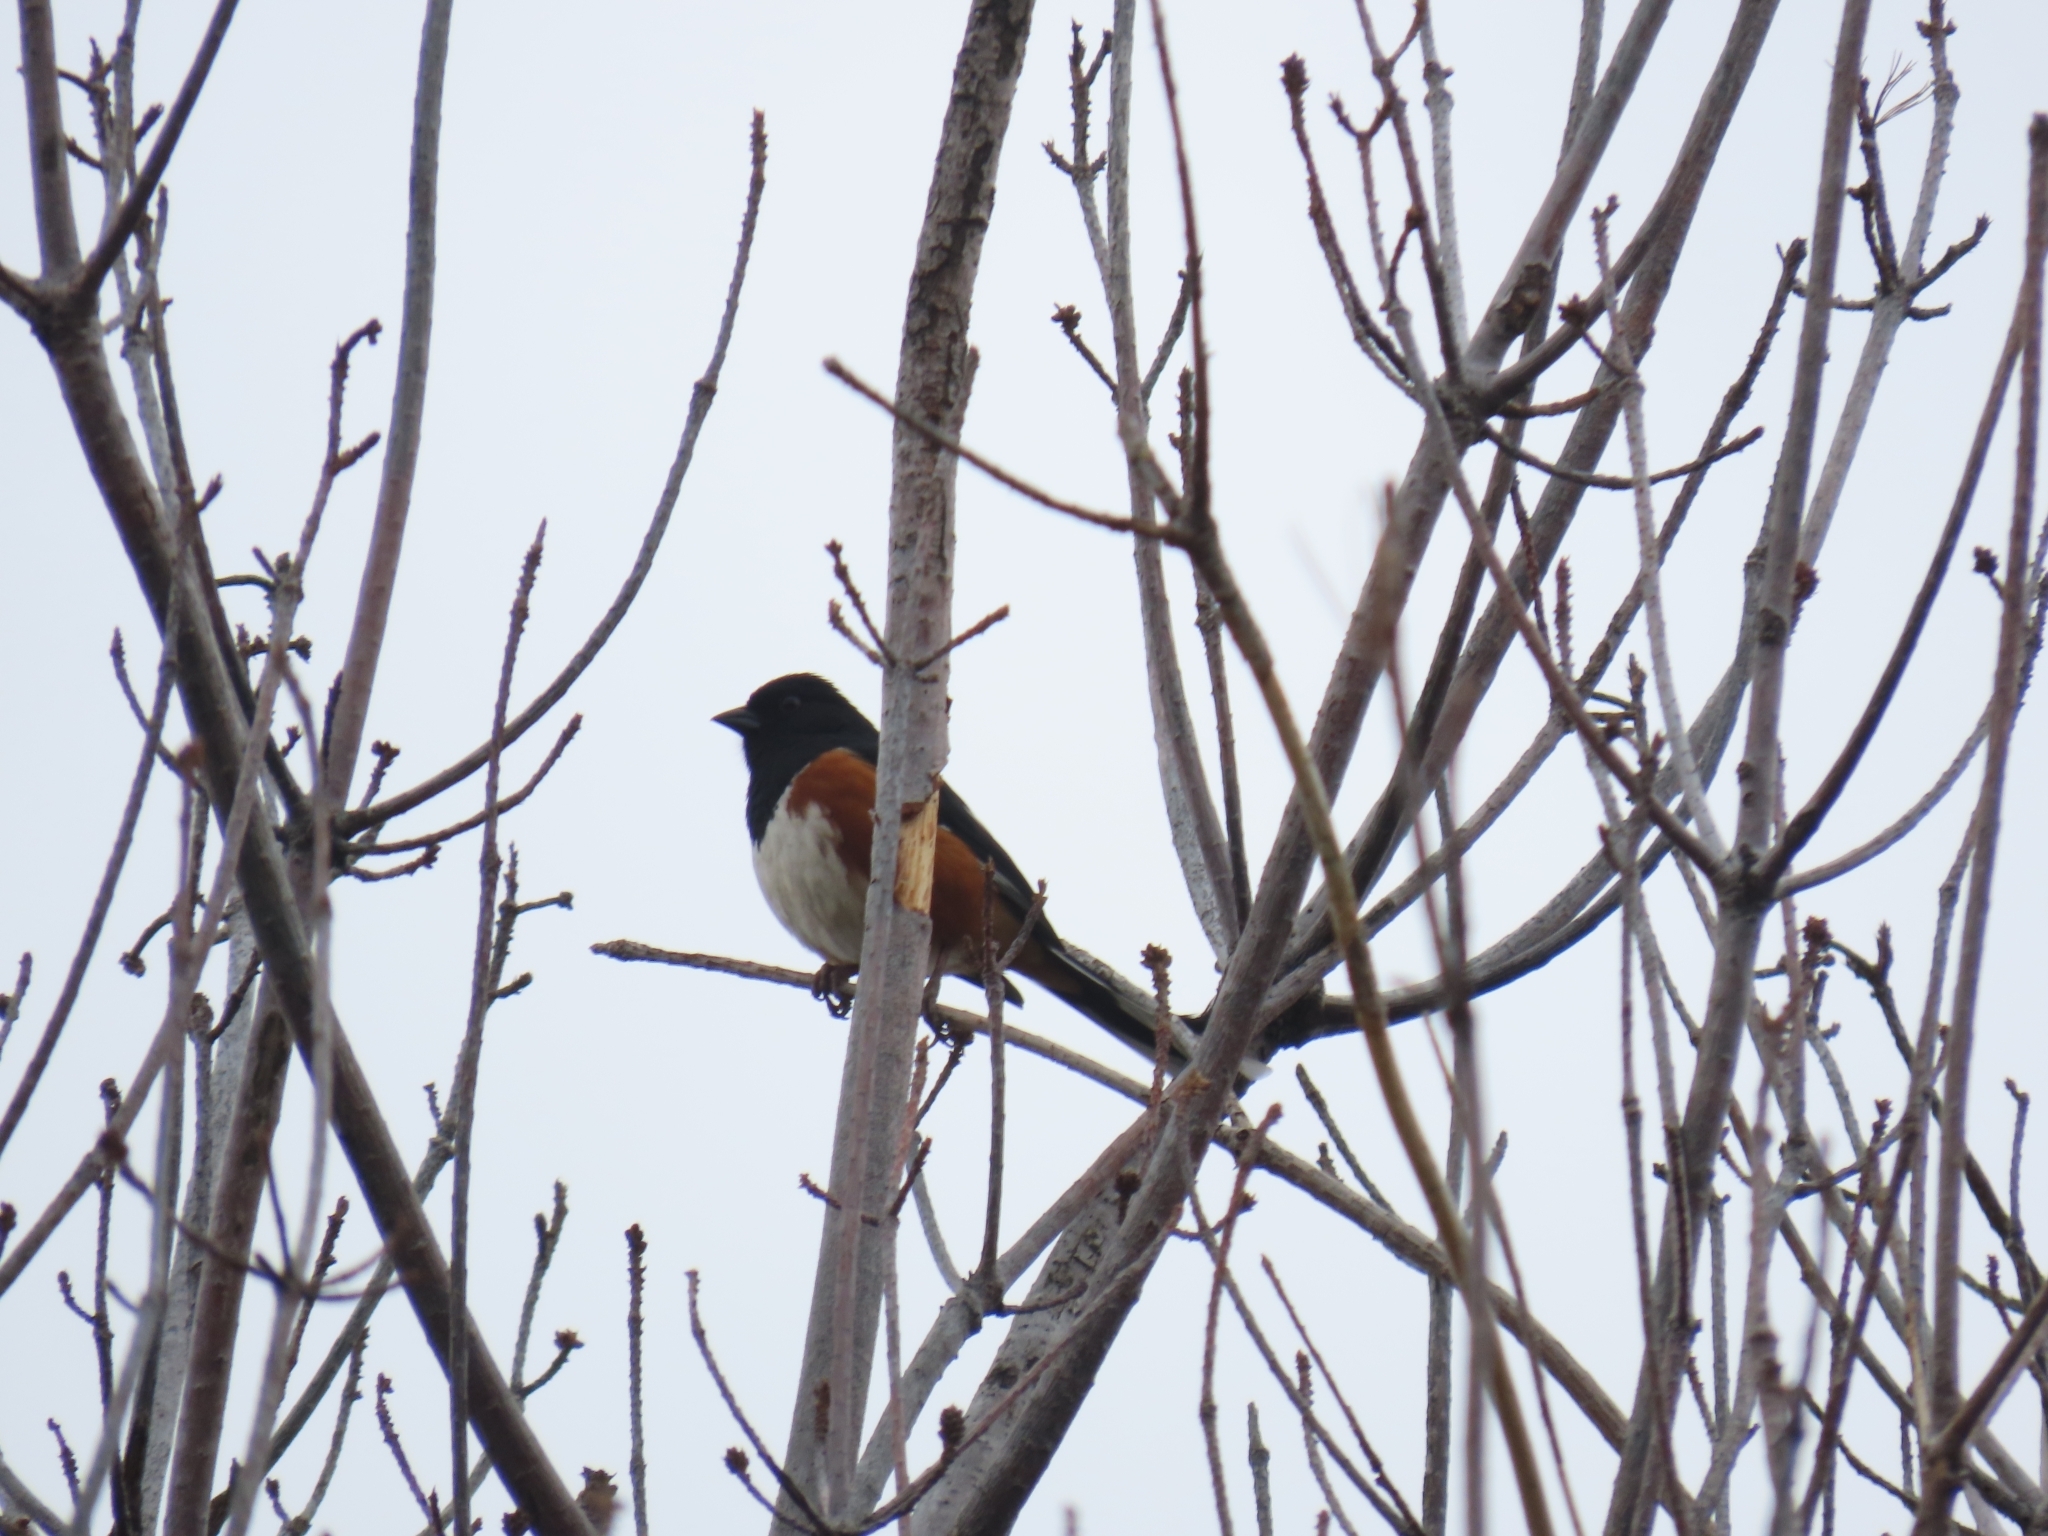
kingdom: Animalia
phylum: Chordata
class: Aves
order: Passeriformes
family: Passerellidae
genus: Pipilo
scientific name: Pipilo erythrophthalmus
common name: Eastern towhee
